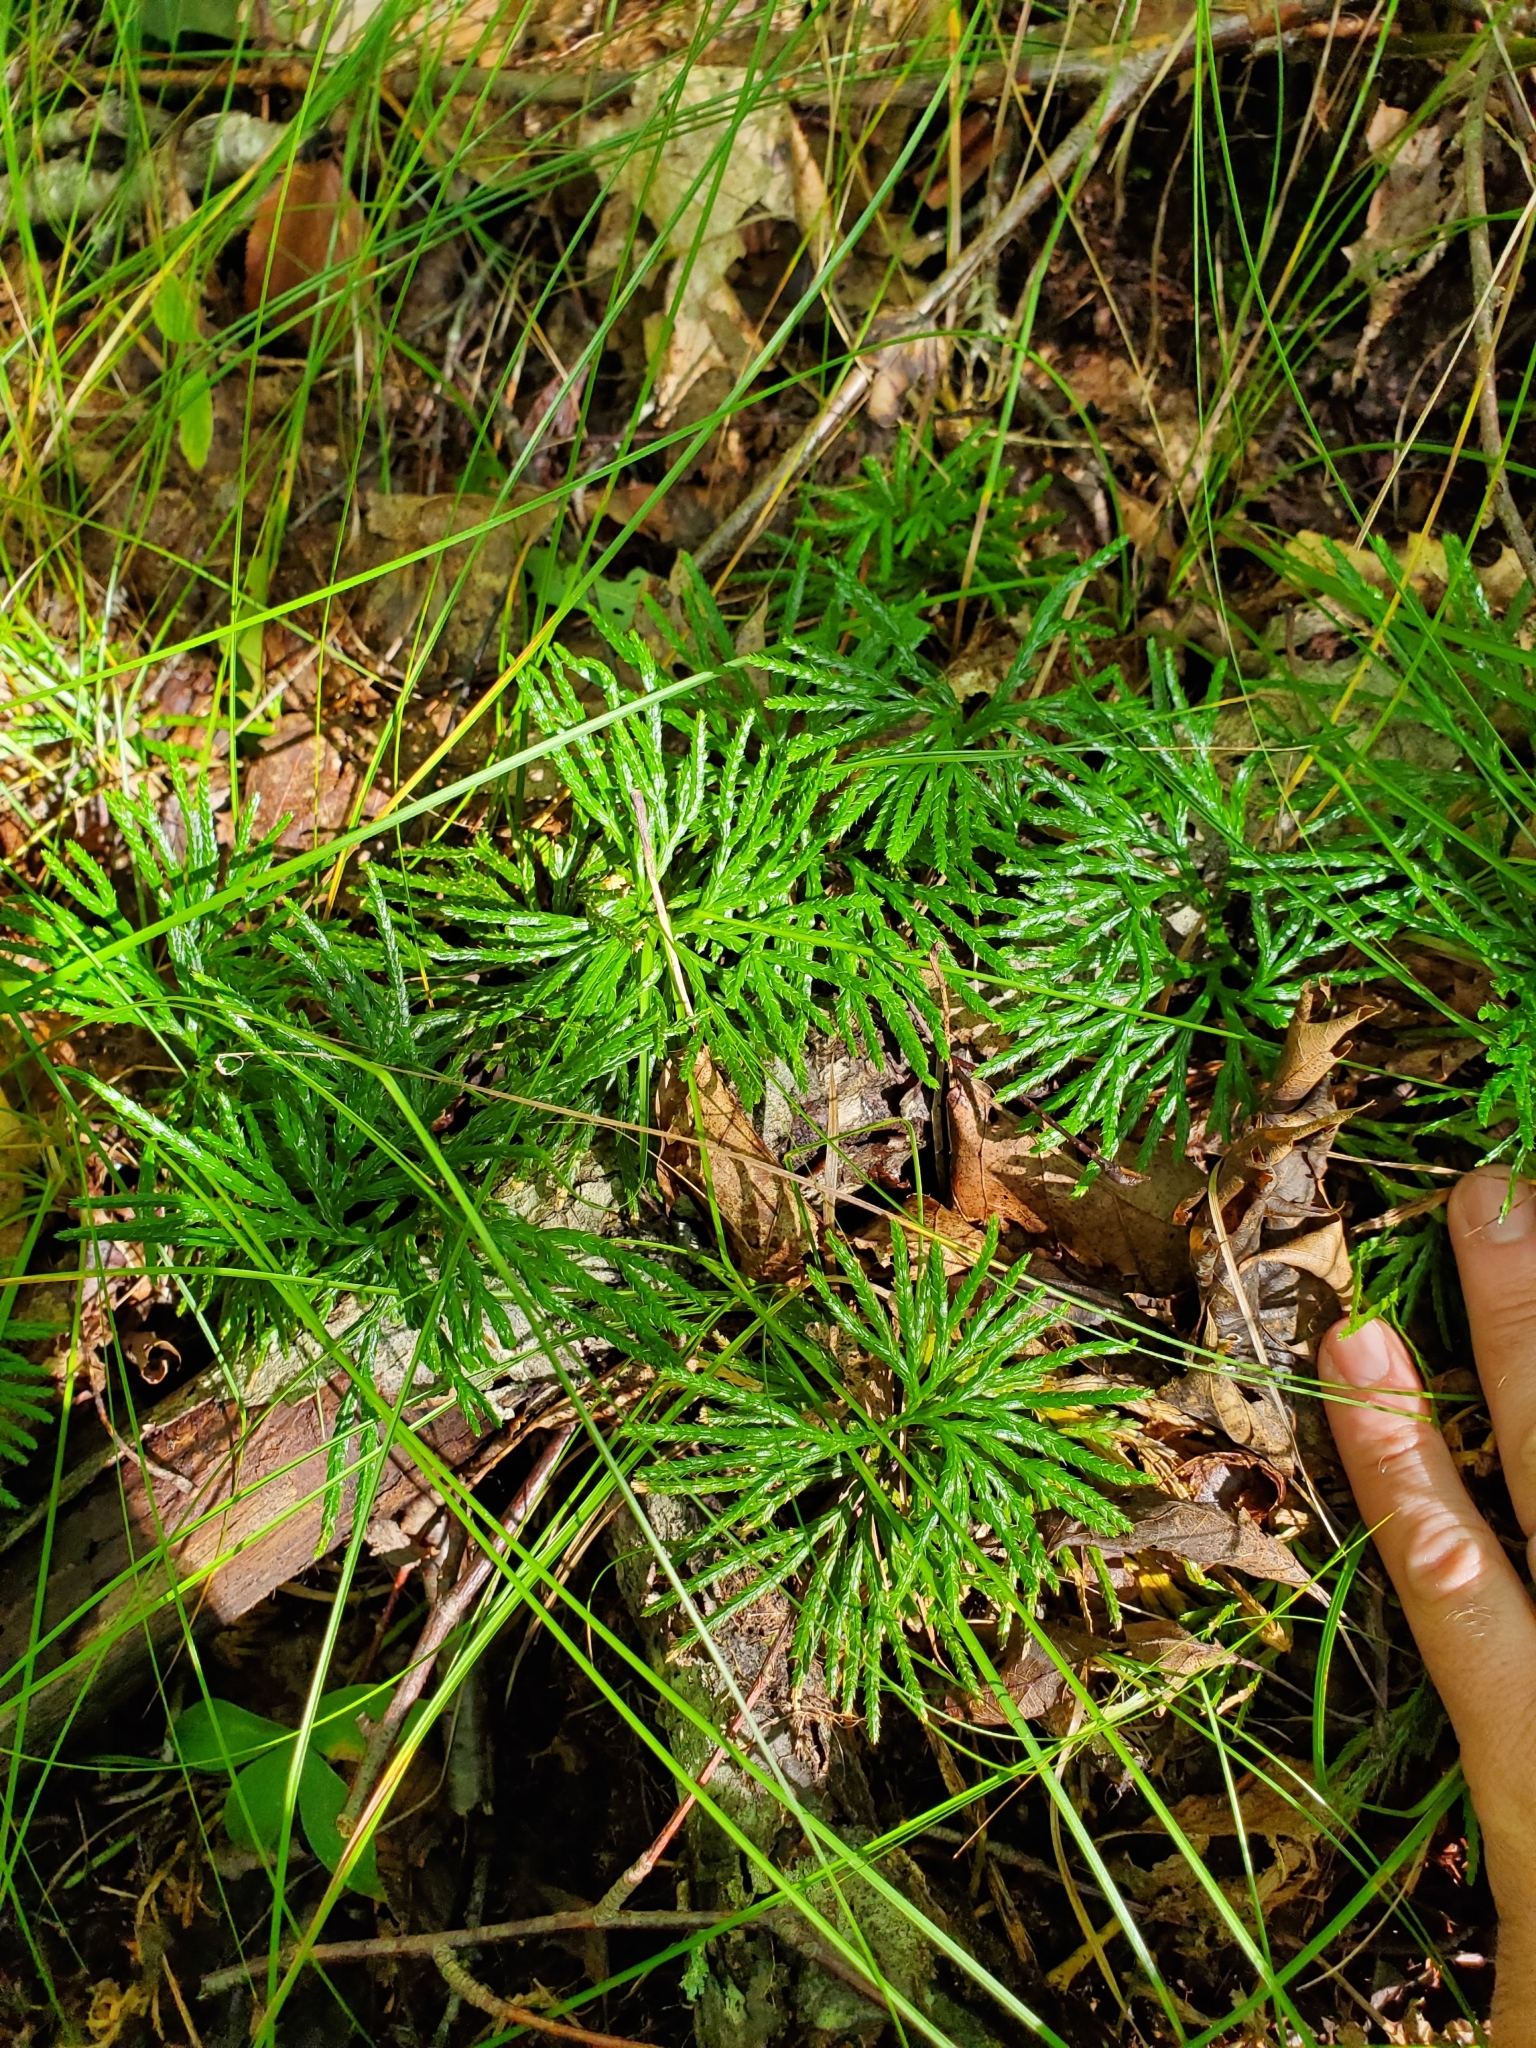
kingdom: Plantae
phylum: Tracheophyta
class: Lycopodiopsida
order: Lycopodiales
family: Lycopodiaceae
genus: Diphasiastrum
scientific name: Diphasiastrum digitatum
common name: Southern running-pine
